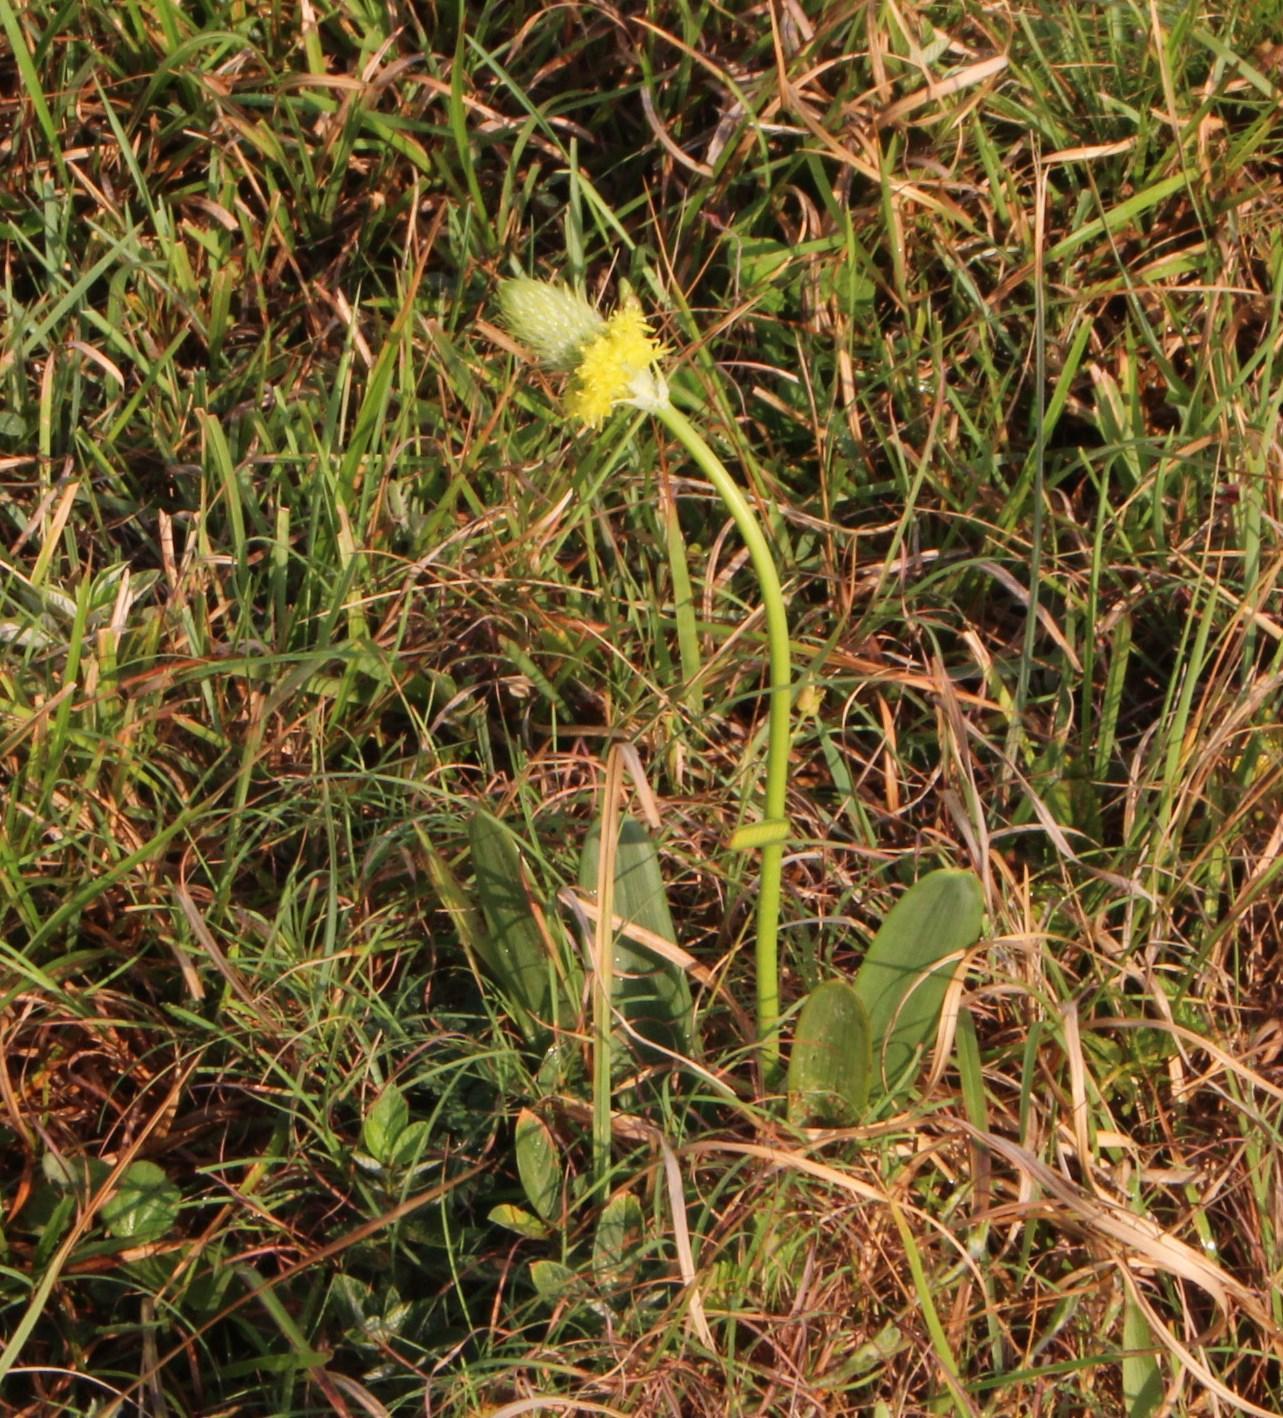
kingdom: Plantae
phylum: Tracheophyta
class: Liliopsida
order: Asparagales
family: Asphodelaceae
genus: Bulbine
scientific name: Bulbine narcissifolia
